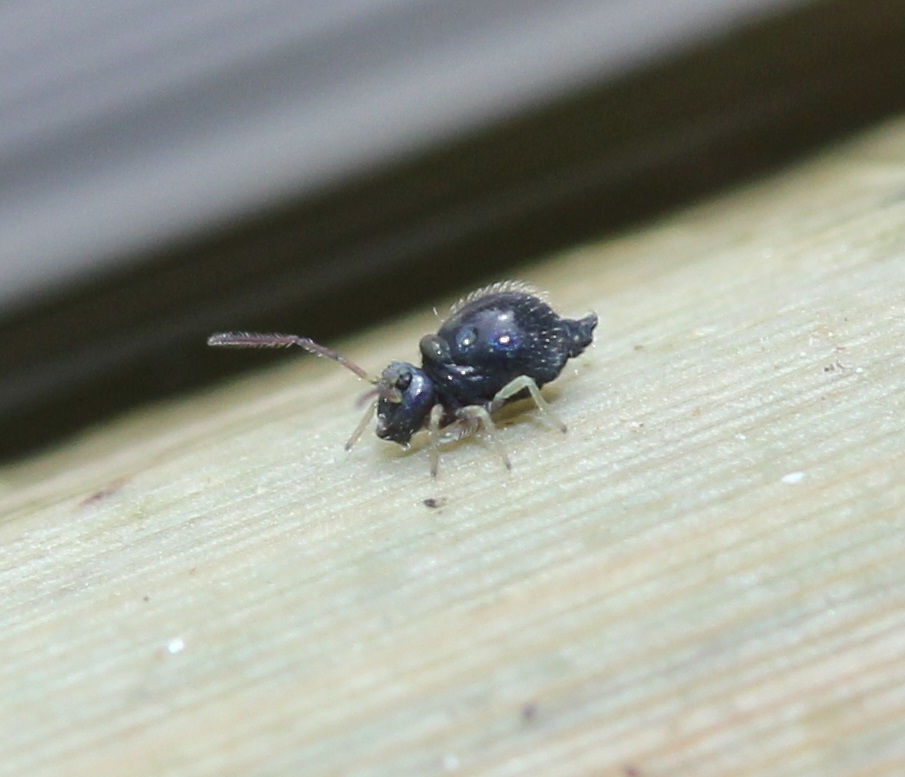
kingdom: Animalia
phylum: Arthropoda
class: Collembola
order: Symphypleona
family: Bourletiellidae
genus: Pseudobourletiella
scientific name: Pseudobourletiella spinata
